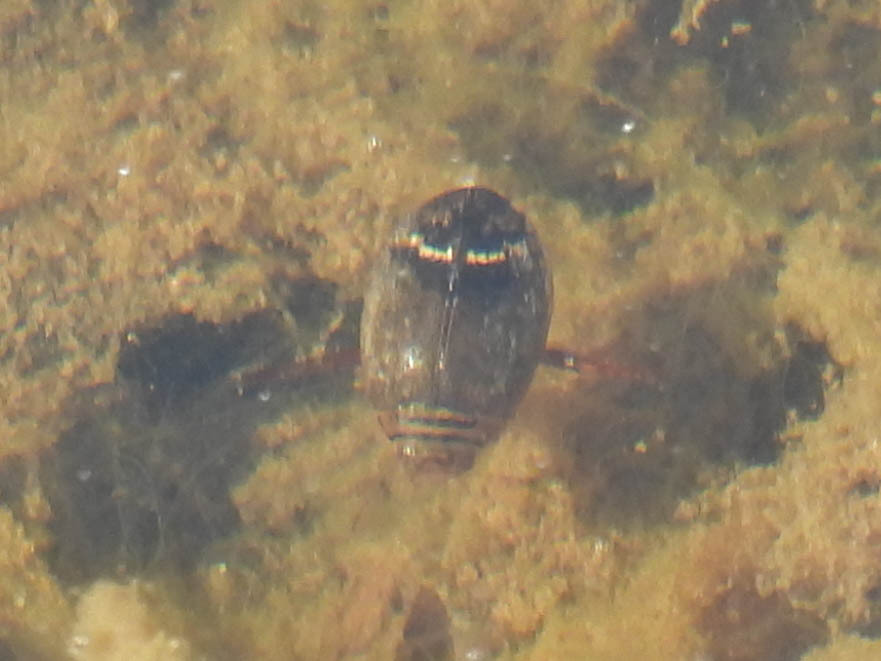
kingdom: Animalia
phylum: Arthropoda
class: Insecta
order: Coleoptera
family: Dytiscidae
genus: Acilius
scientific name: Acilius
